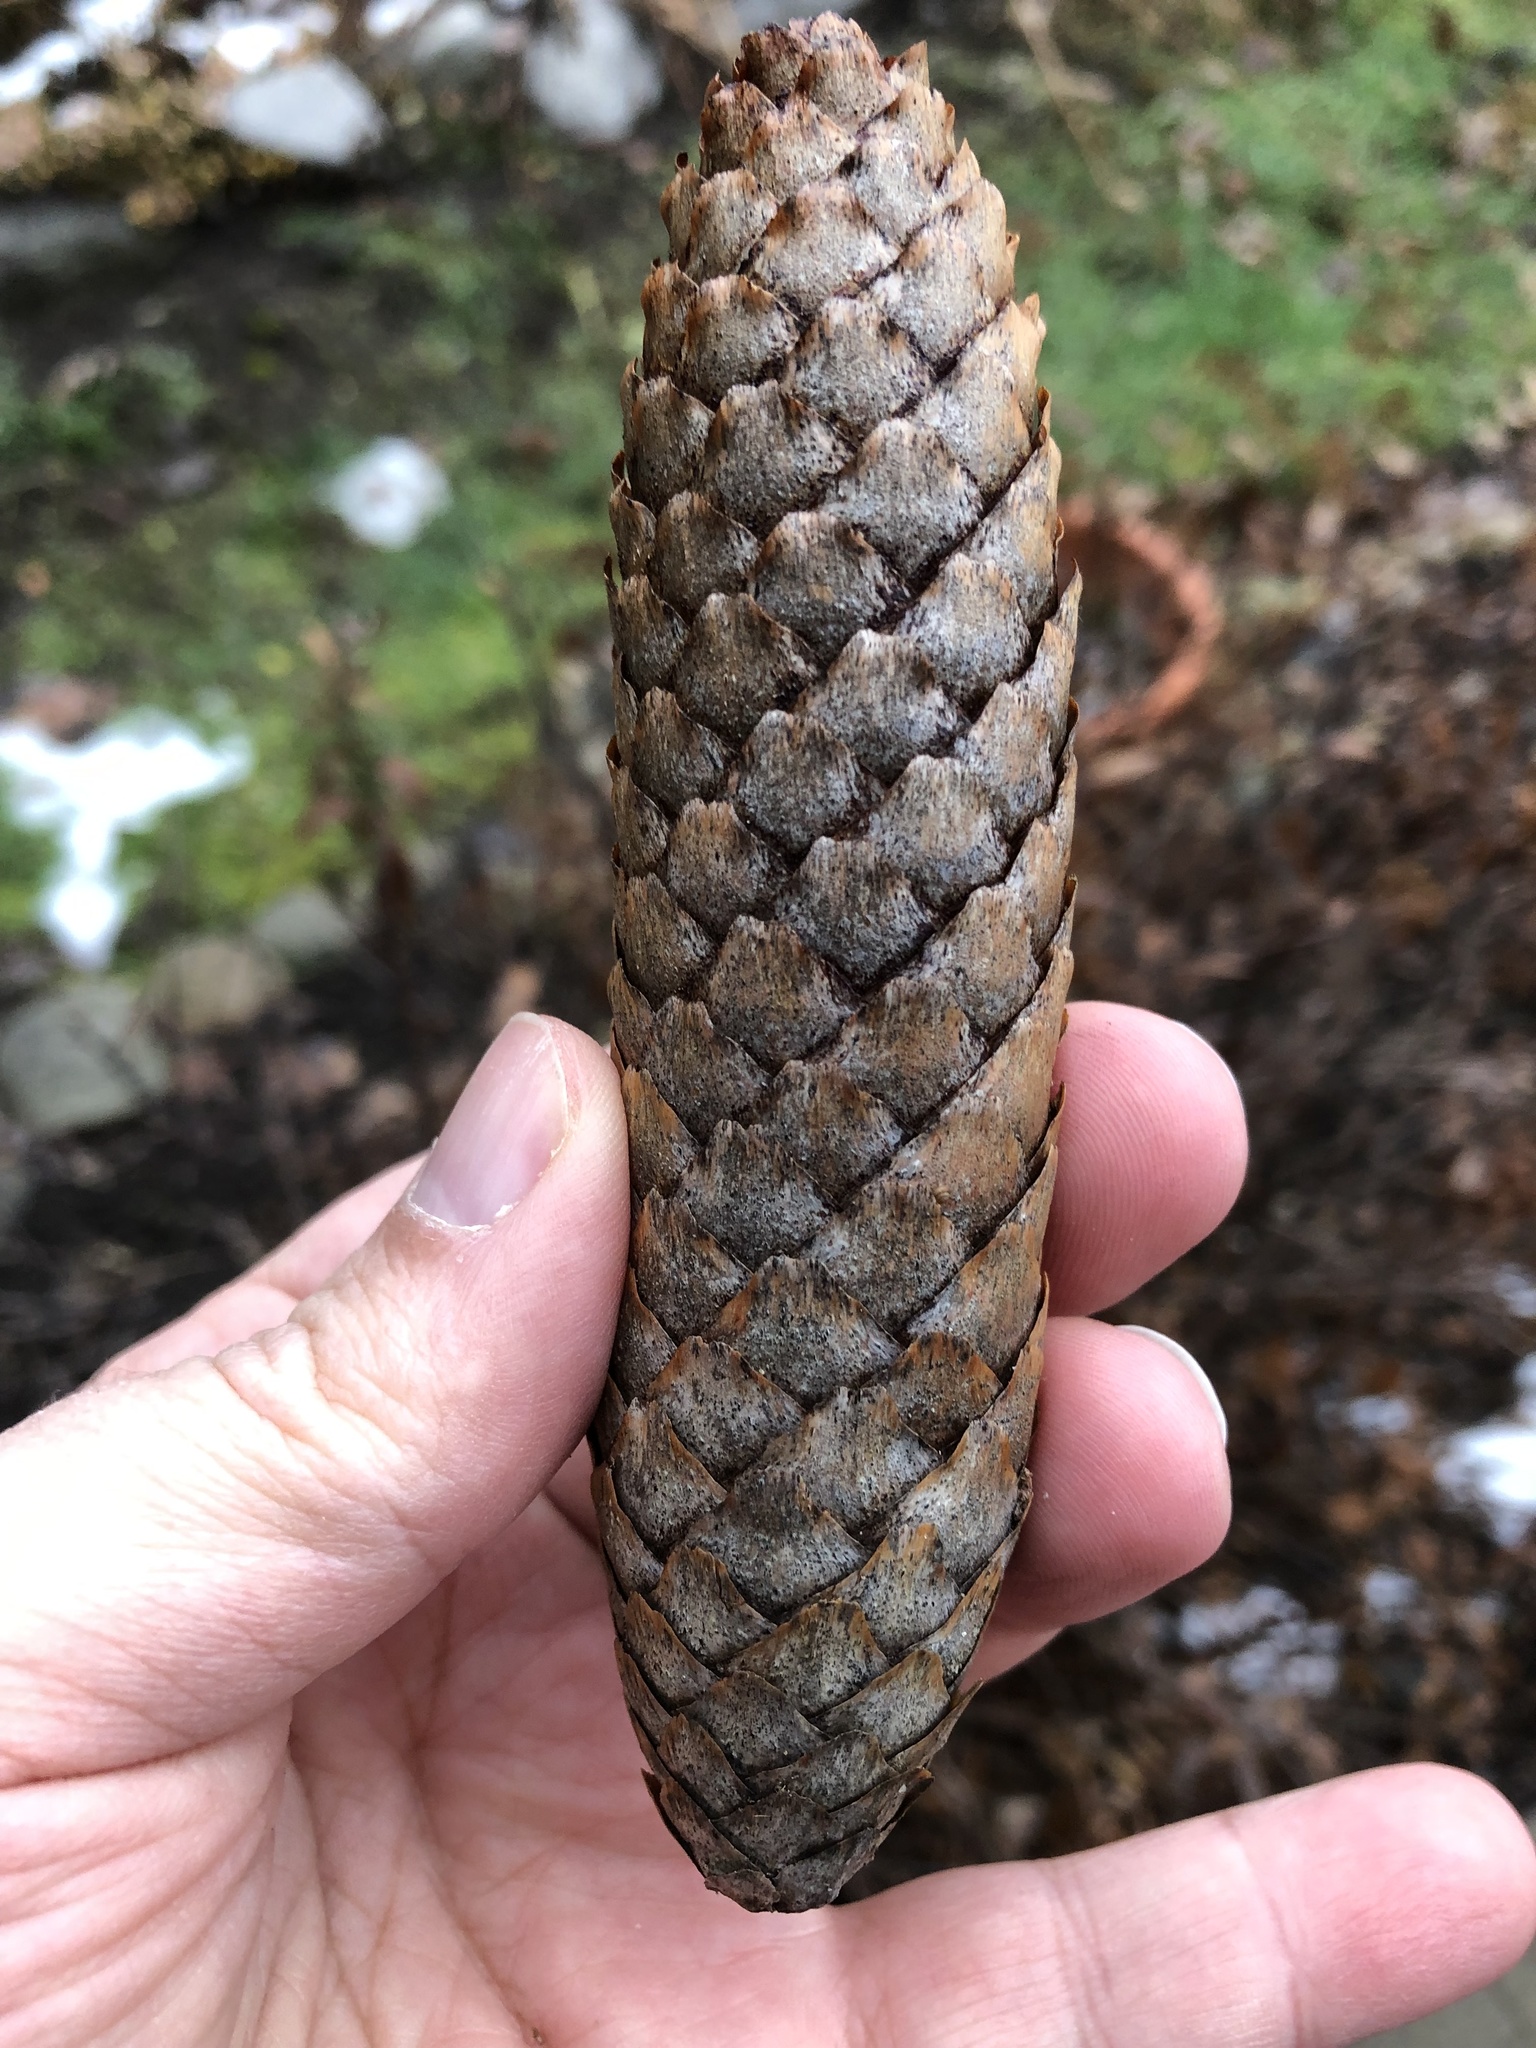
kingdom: Plantae
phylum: Tracheophyta
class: Pinopsida
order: Pinales
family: Pinaceae
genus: Picea
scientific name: Picea abies
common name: Norway spruce
